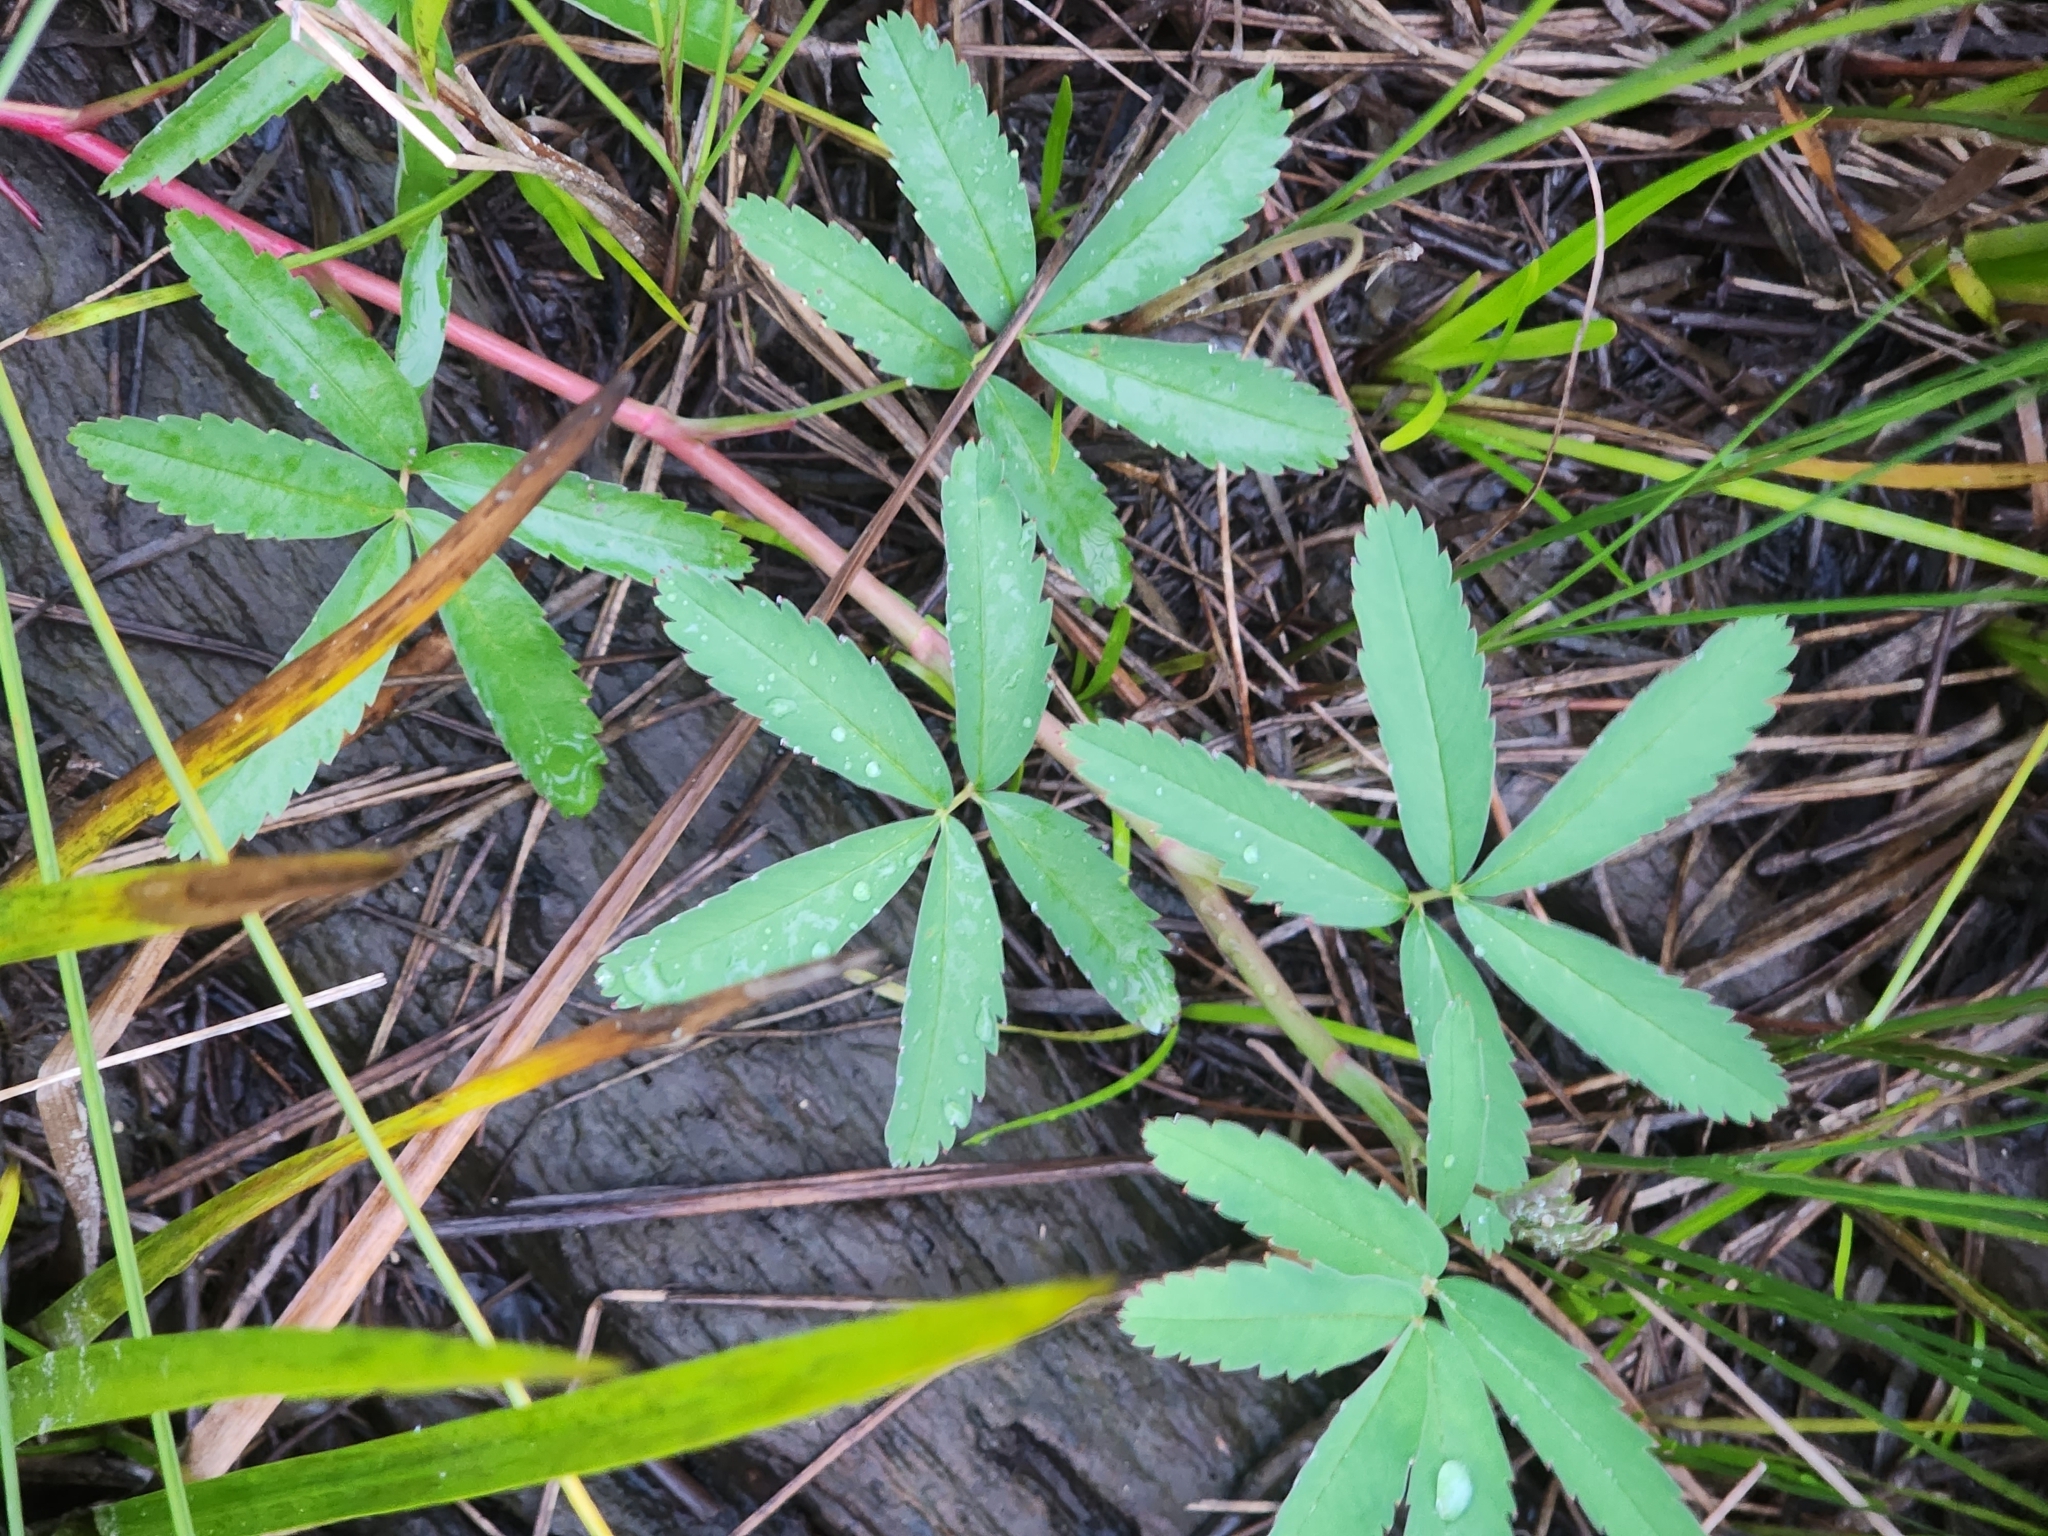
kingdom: Plantae
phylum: Tracheophyta
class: Magnoliopsida
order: Rosales
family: Rosaceae
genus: Comarum
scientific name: Comarum palustre
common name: Marsh cinquefoil
